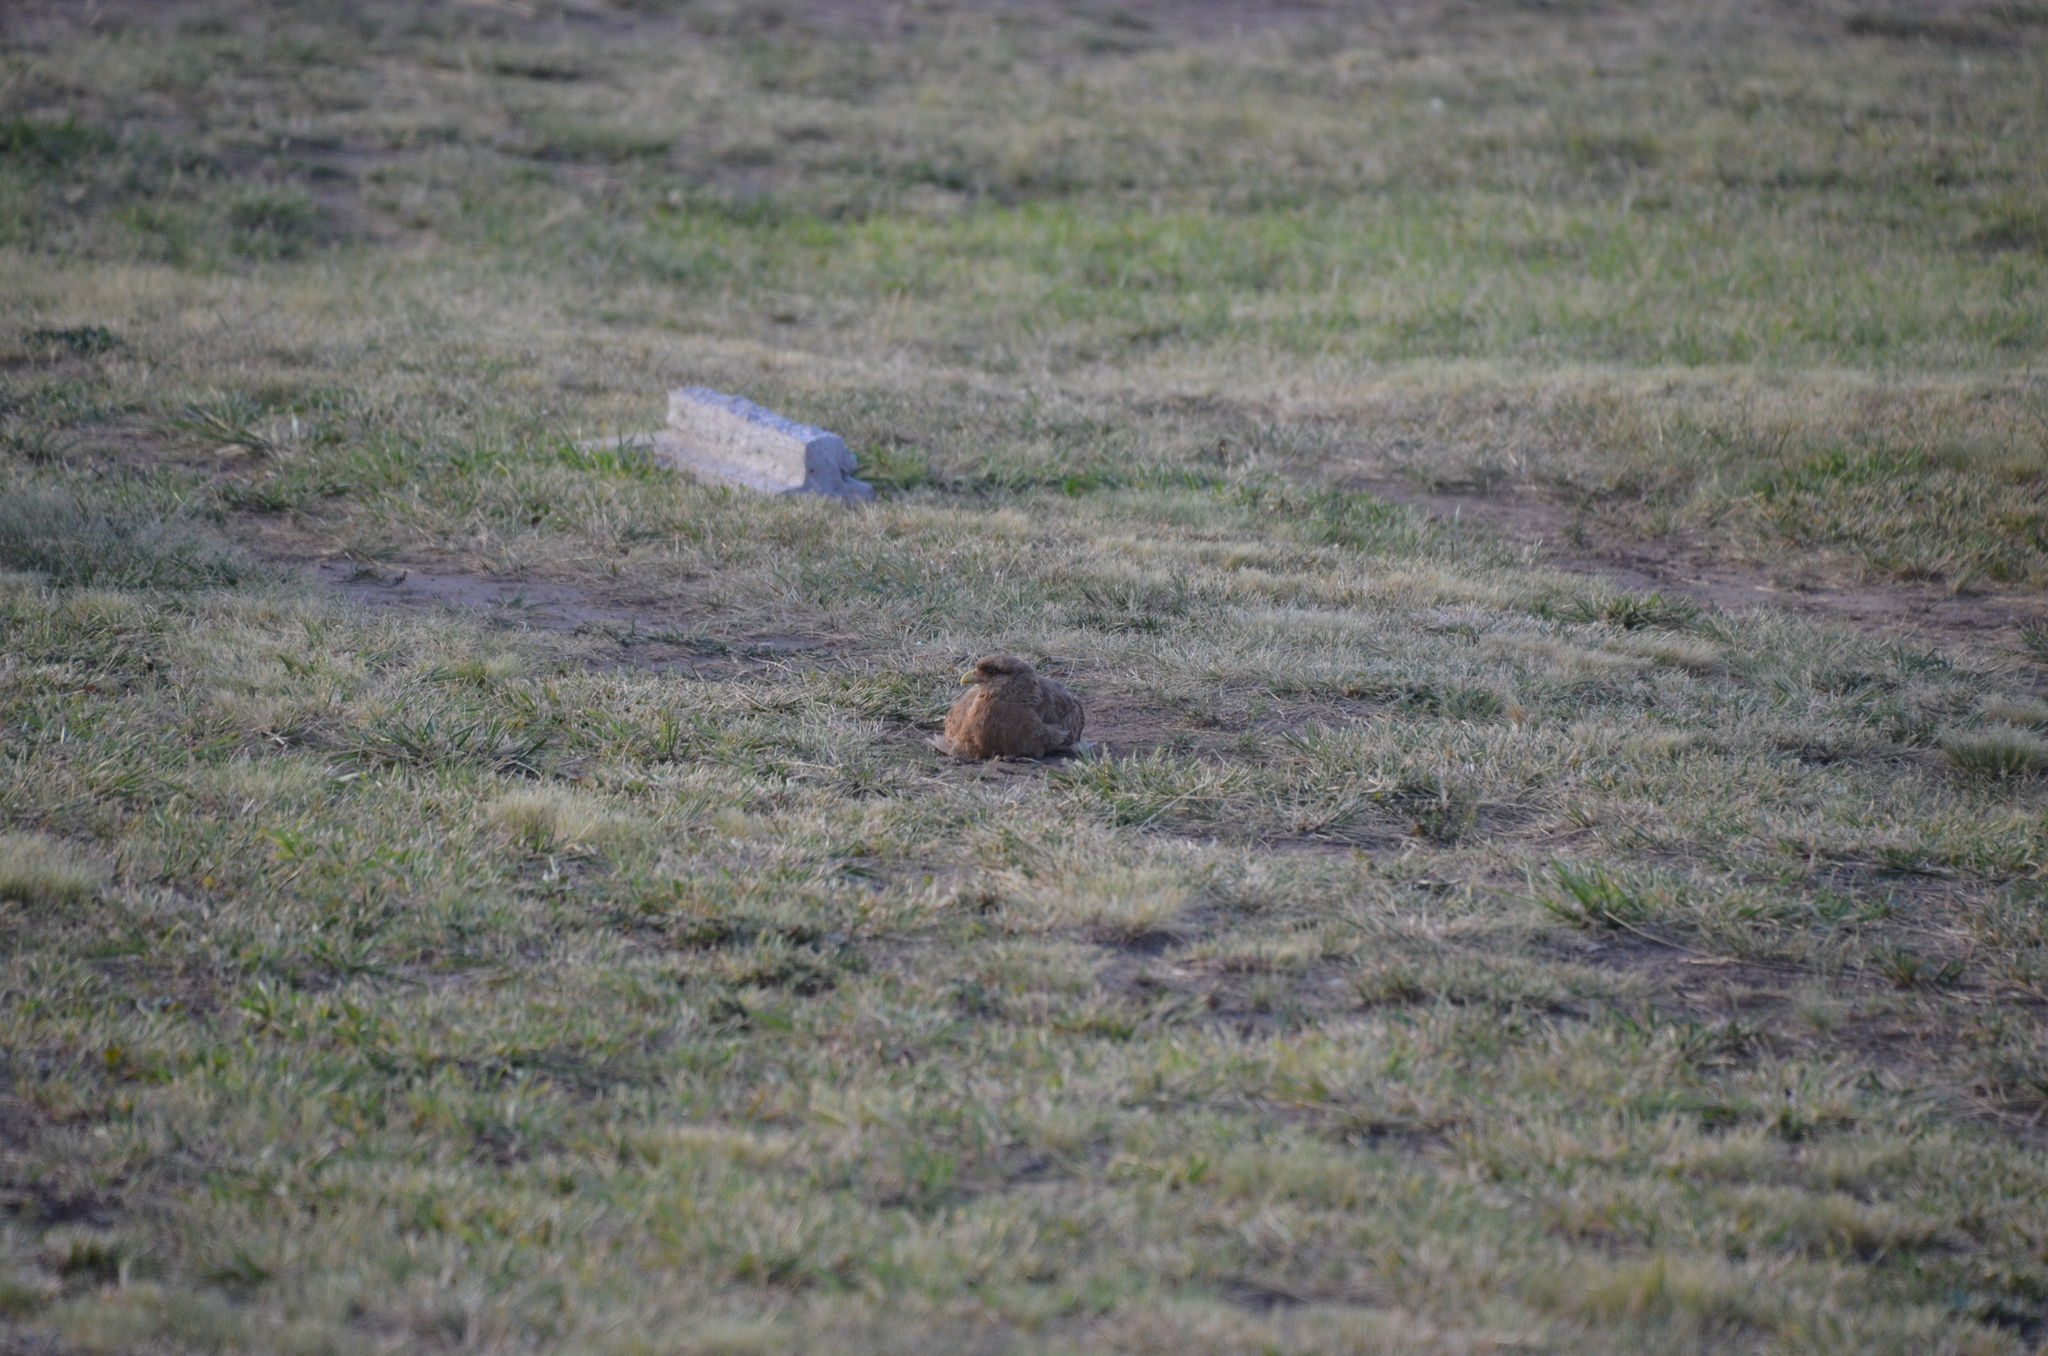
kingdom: Animalia
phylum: Chordata
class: Aves
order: Falconiformes
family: Falconidae
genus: Daptrius
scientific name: Daptrius
